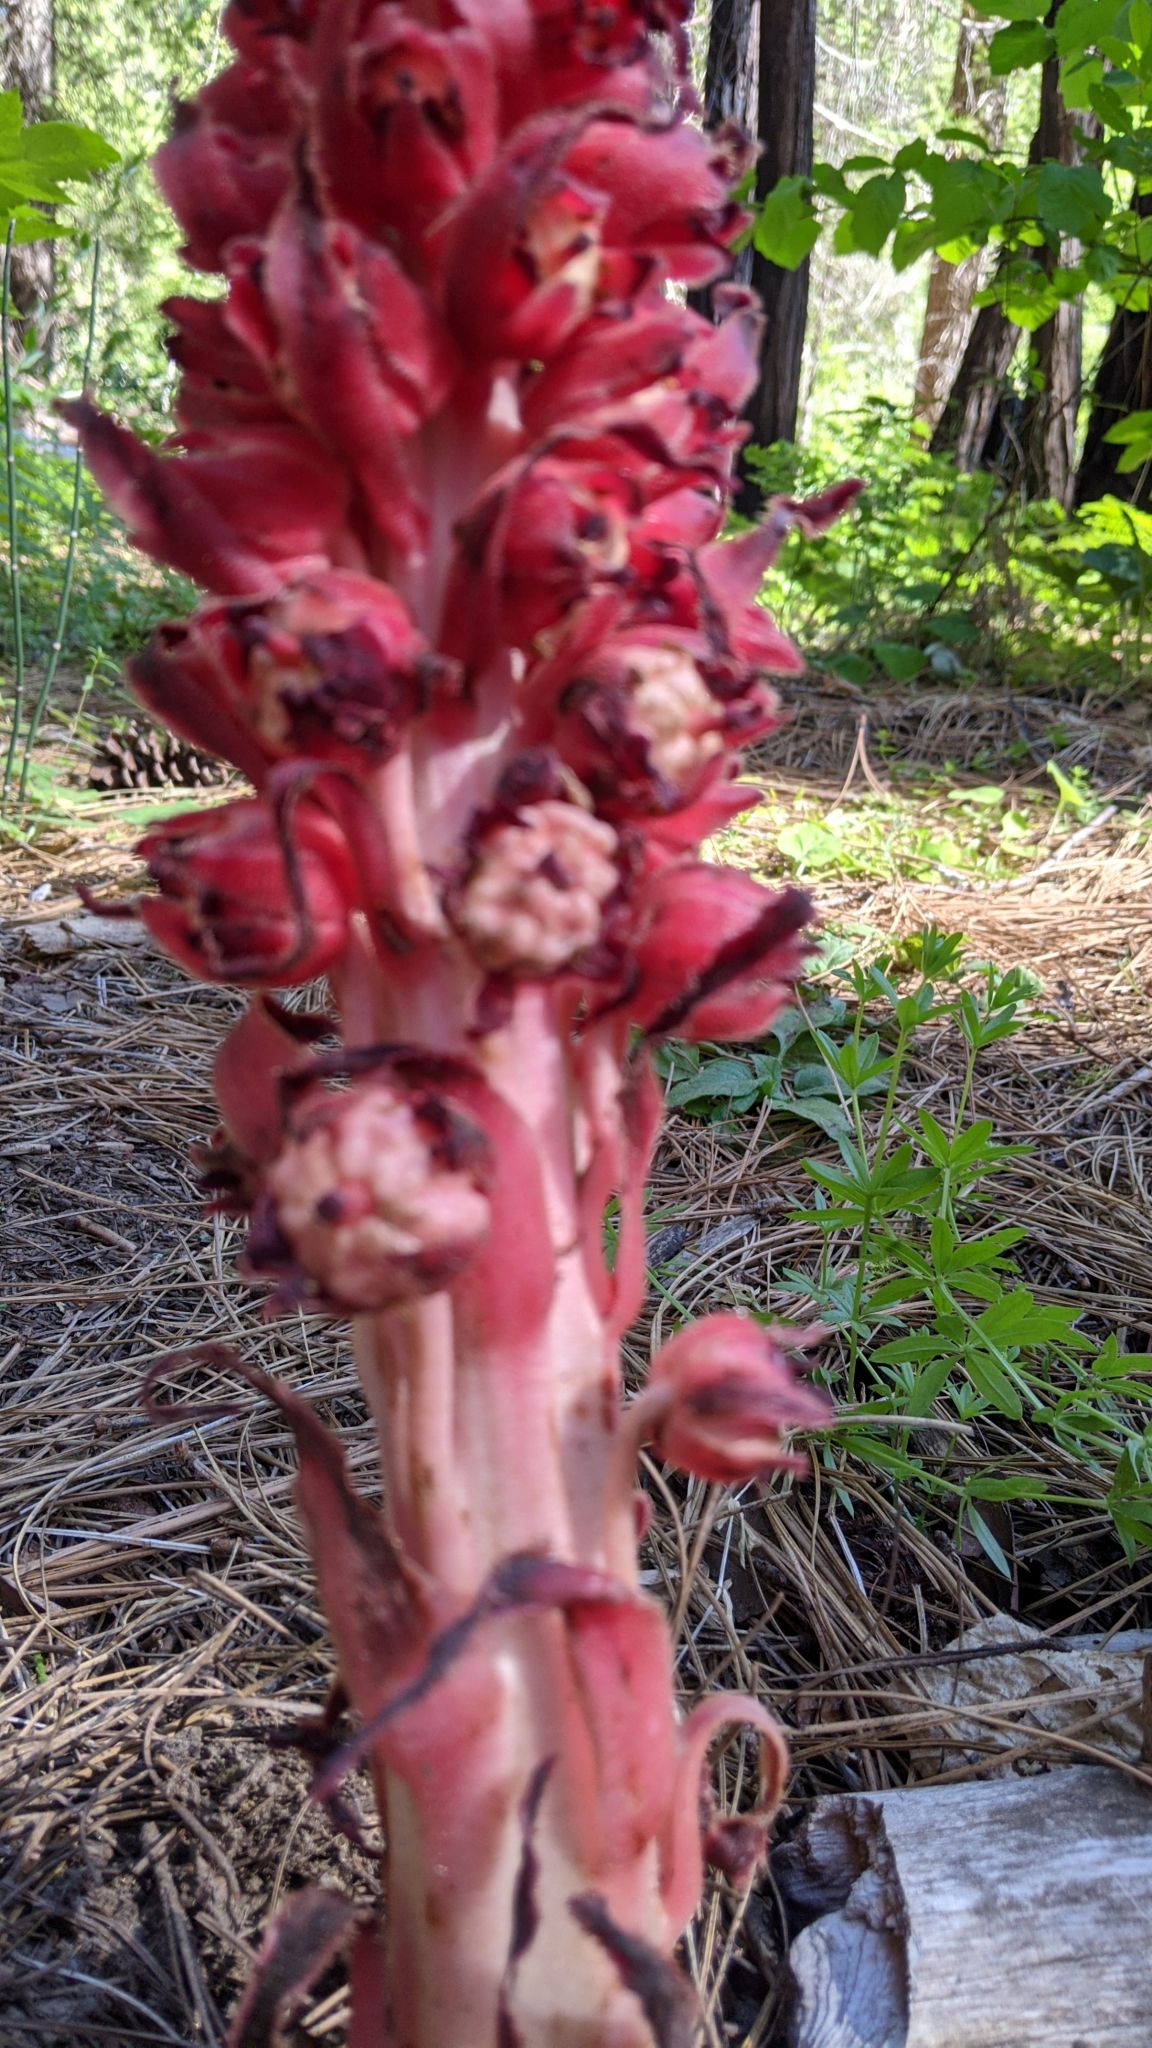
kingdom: Plantae
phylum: Tracheophyta
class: Magnoliopsida
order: Ericales
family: Ericaceae
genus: Sarcodes
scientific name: Sarcodes sanguinea
